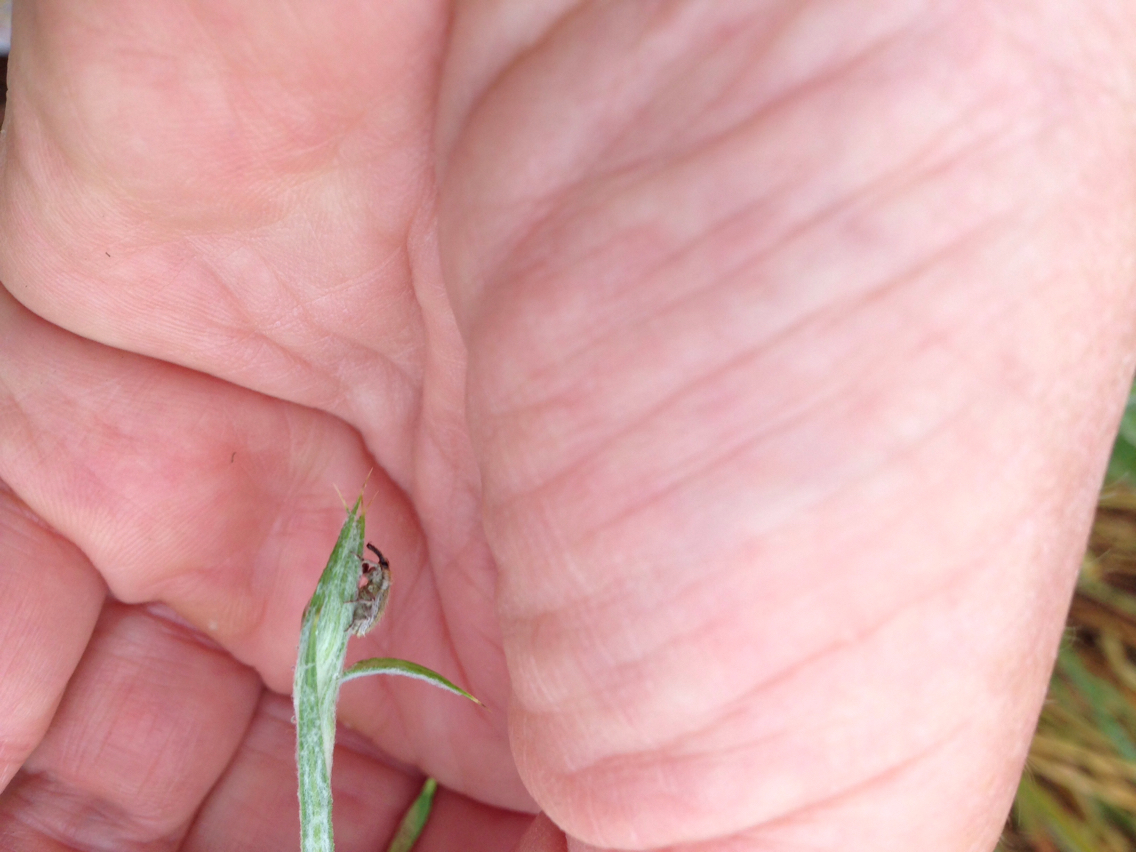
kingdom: Animalia
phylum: Arthropoda
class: Insecta
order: Coleoptera
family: Curculionidae
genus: Larinus
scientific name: Larinus villosus
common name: Yellow starthistle hairy weevil
